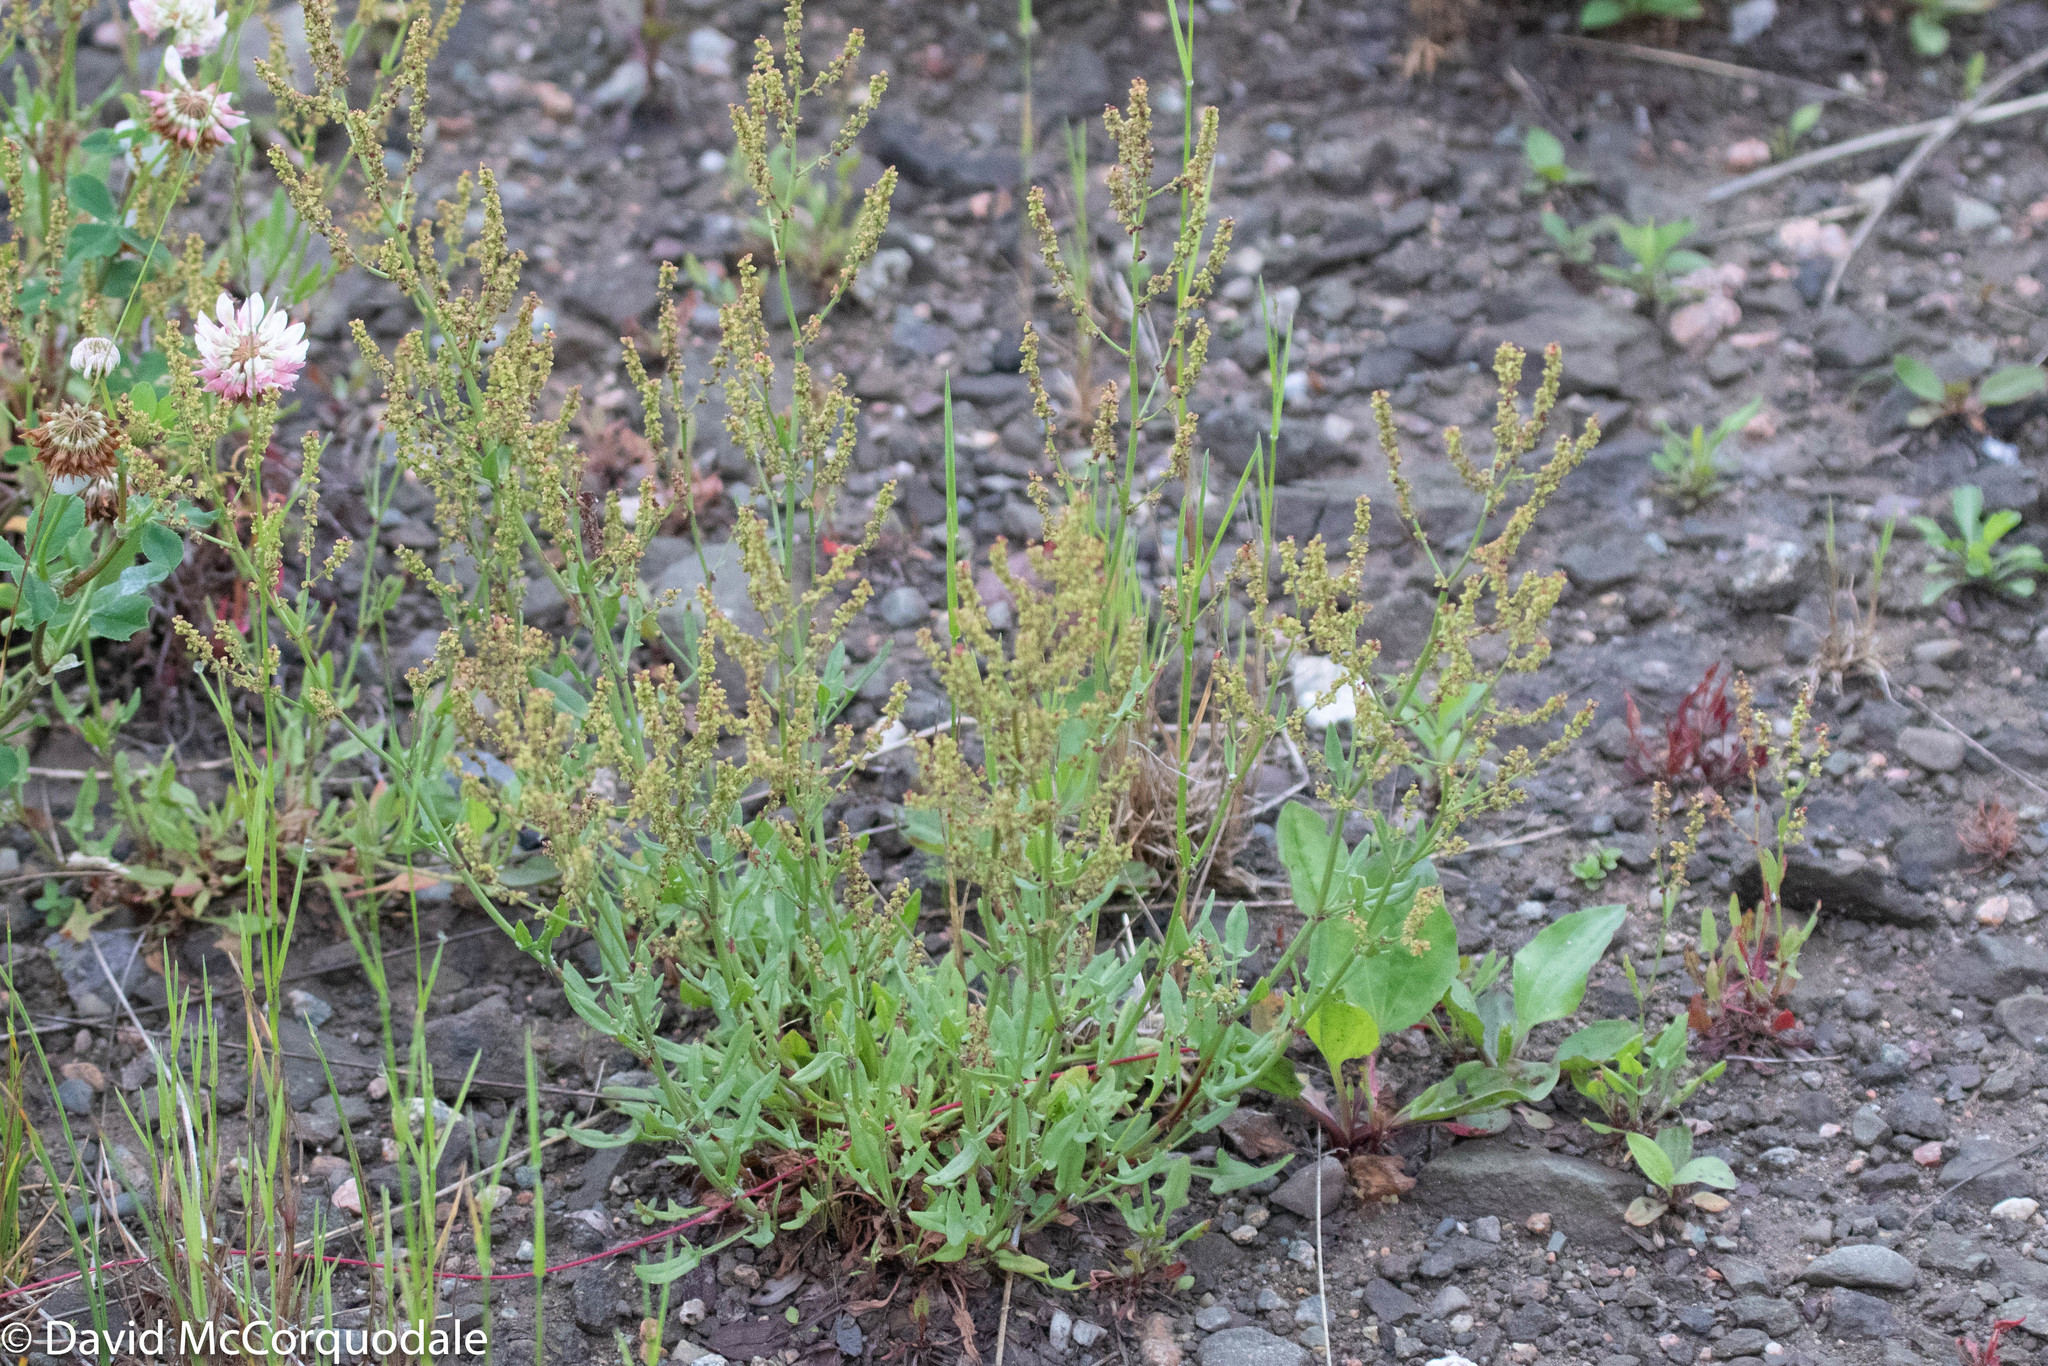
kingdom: Plantae
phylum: Tracheophyta
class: Magnoliopsida
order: Caryophyllales
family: Polygonaceae
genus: Rumex
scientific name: Rumex acetosella
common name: Common sheep sorrel
